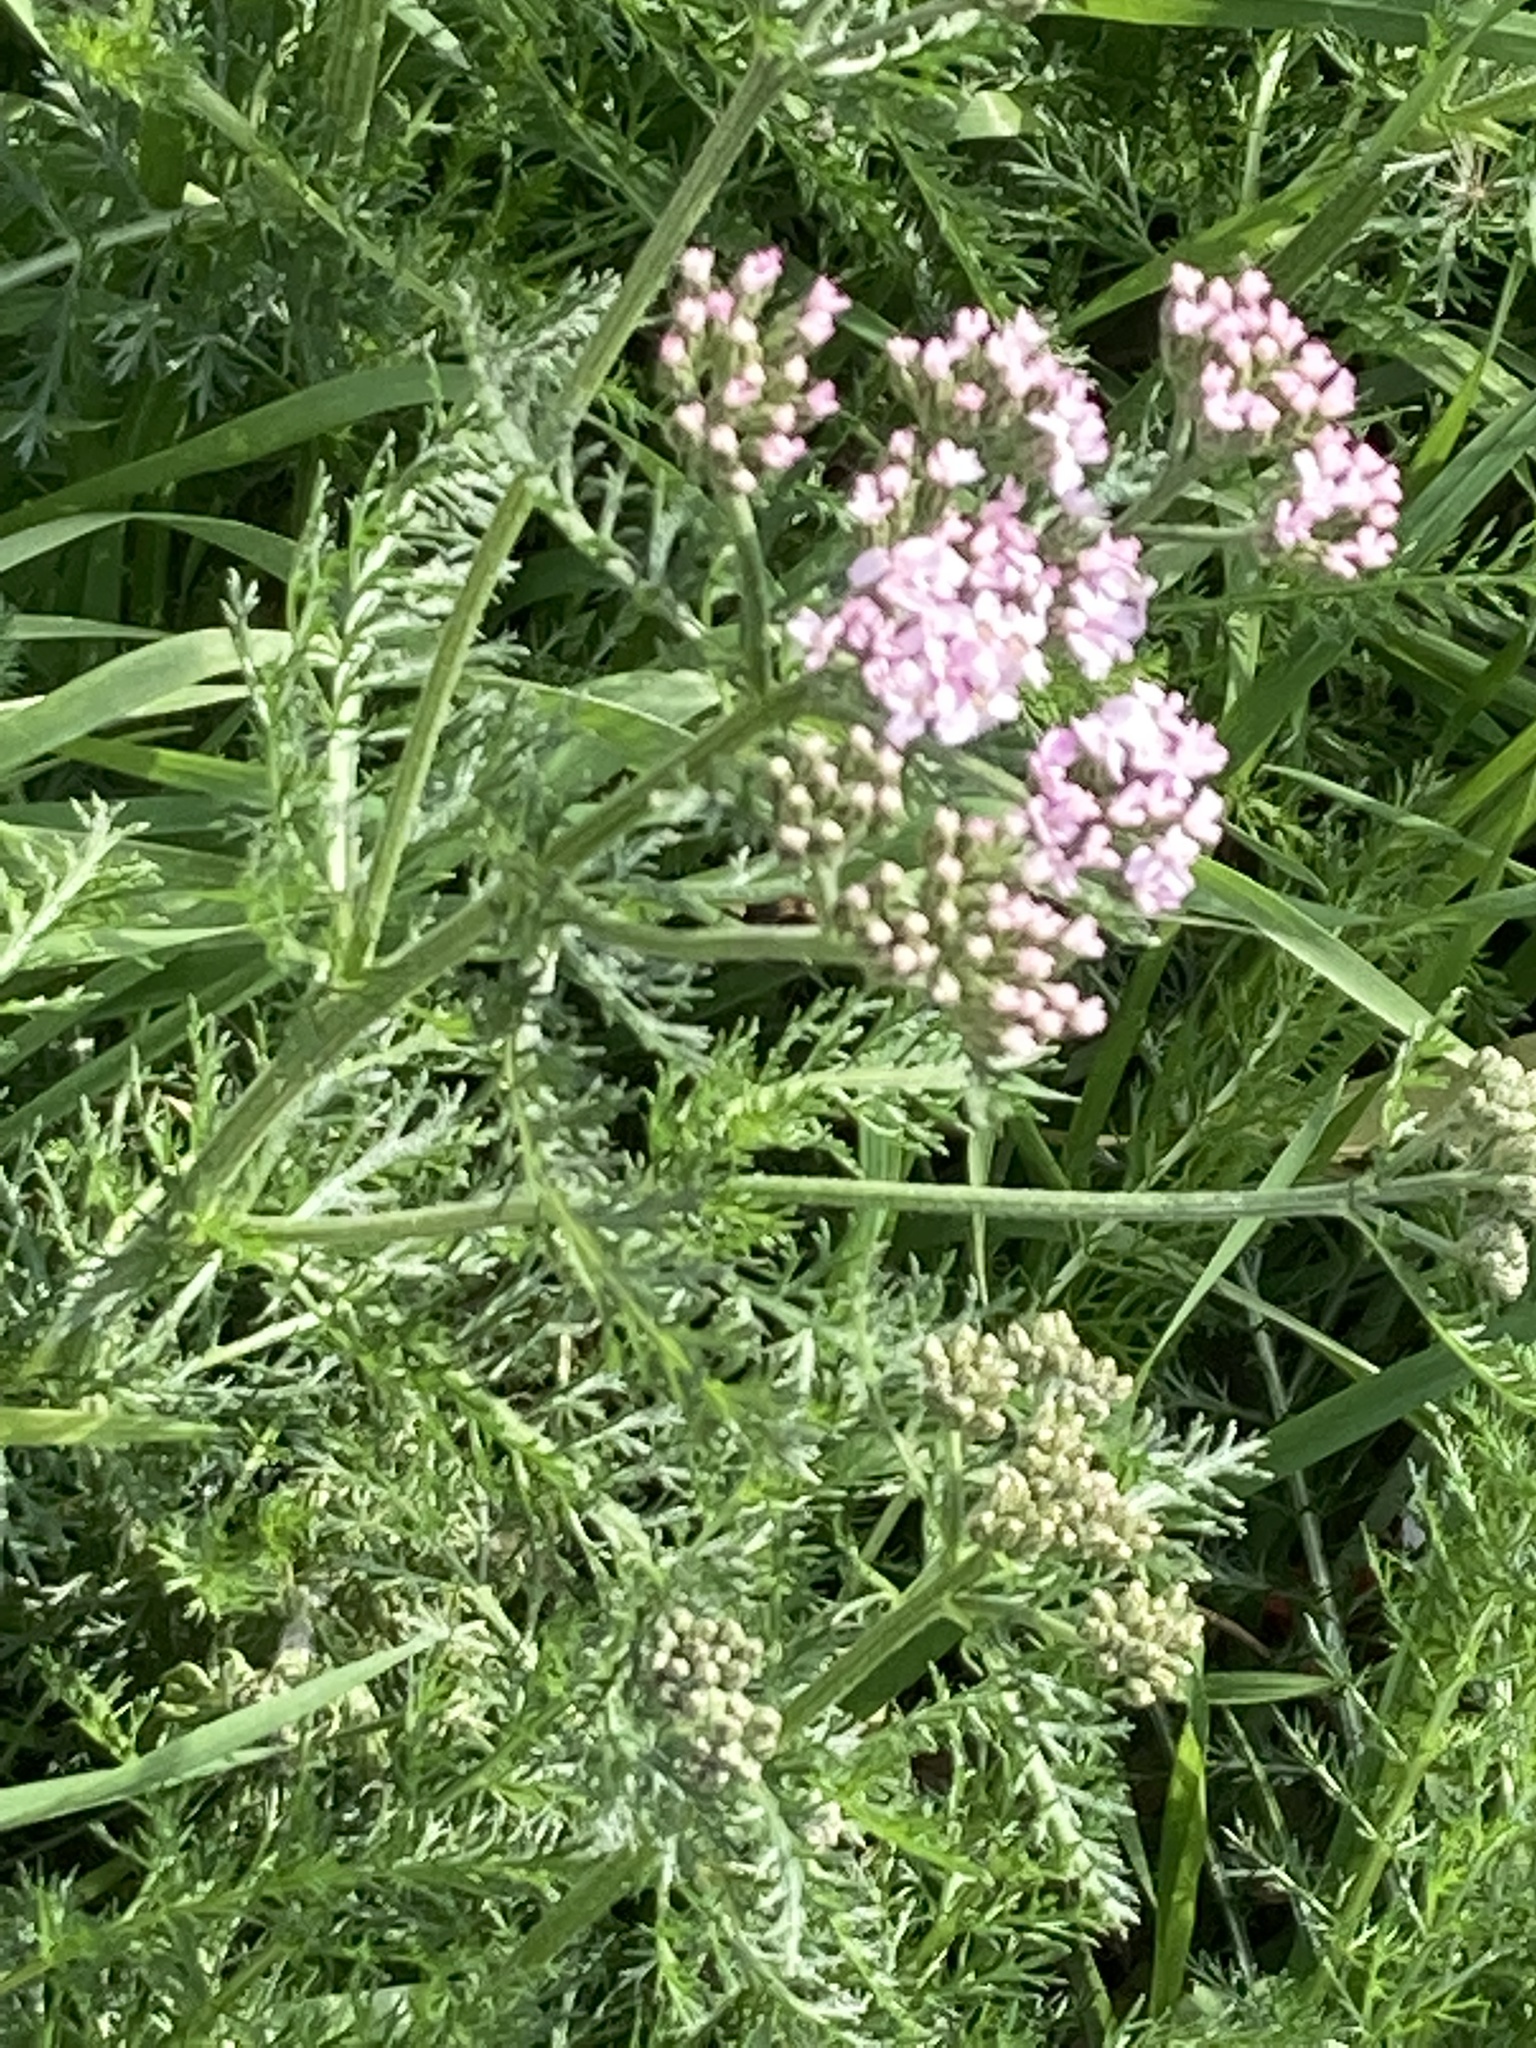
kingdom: Plantae
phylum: Tracheophyta
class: Magnoliopsida
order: Asterales
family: Asteraceae
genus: Achillea
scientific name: Achillea millefolium
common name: Yarrow
